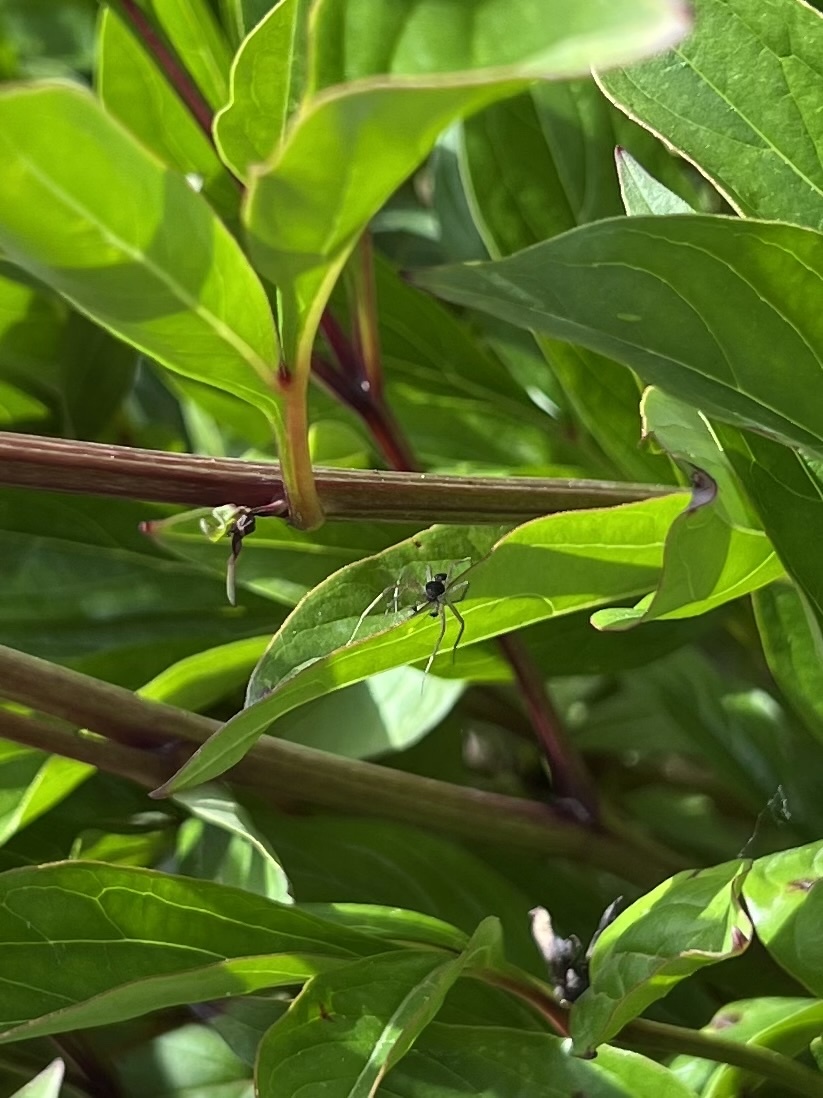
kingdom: Animalia
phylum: Arthropoda
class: Arachnida
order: Araneae
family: Philodromidae
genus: Philodromus
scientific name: Philodromus dispar
